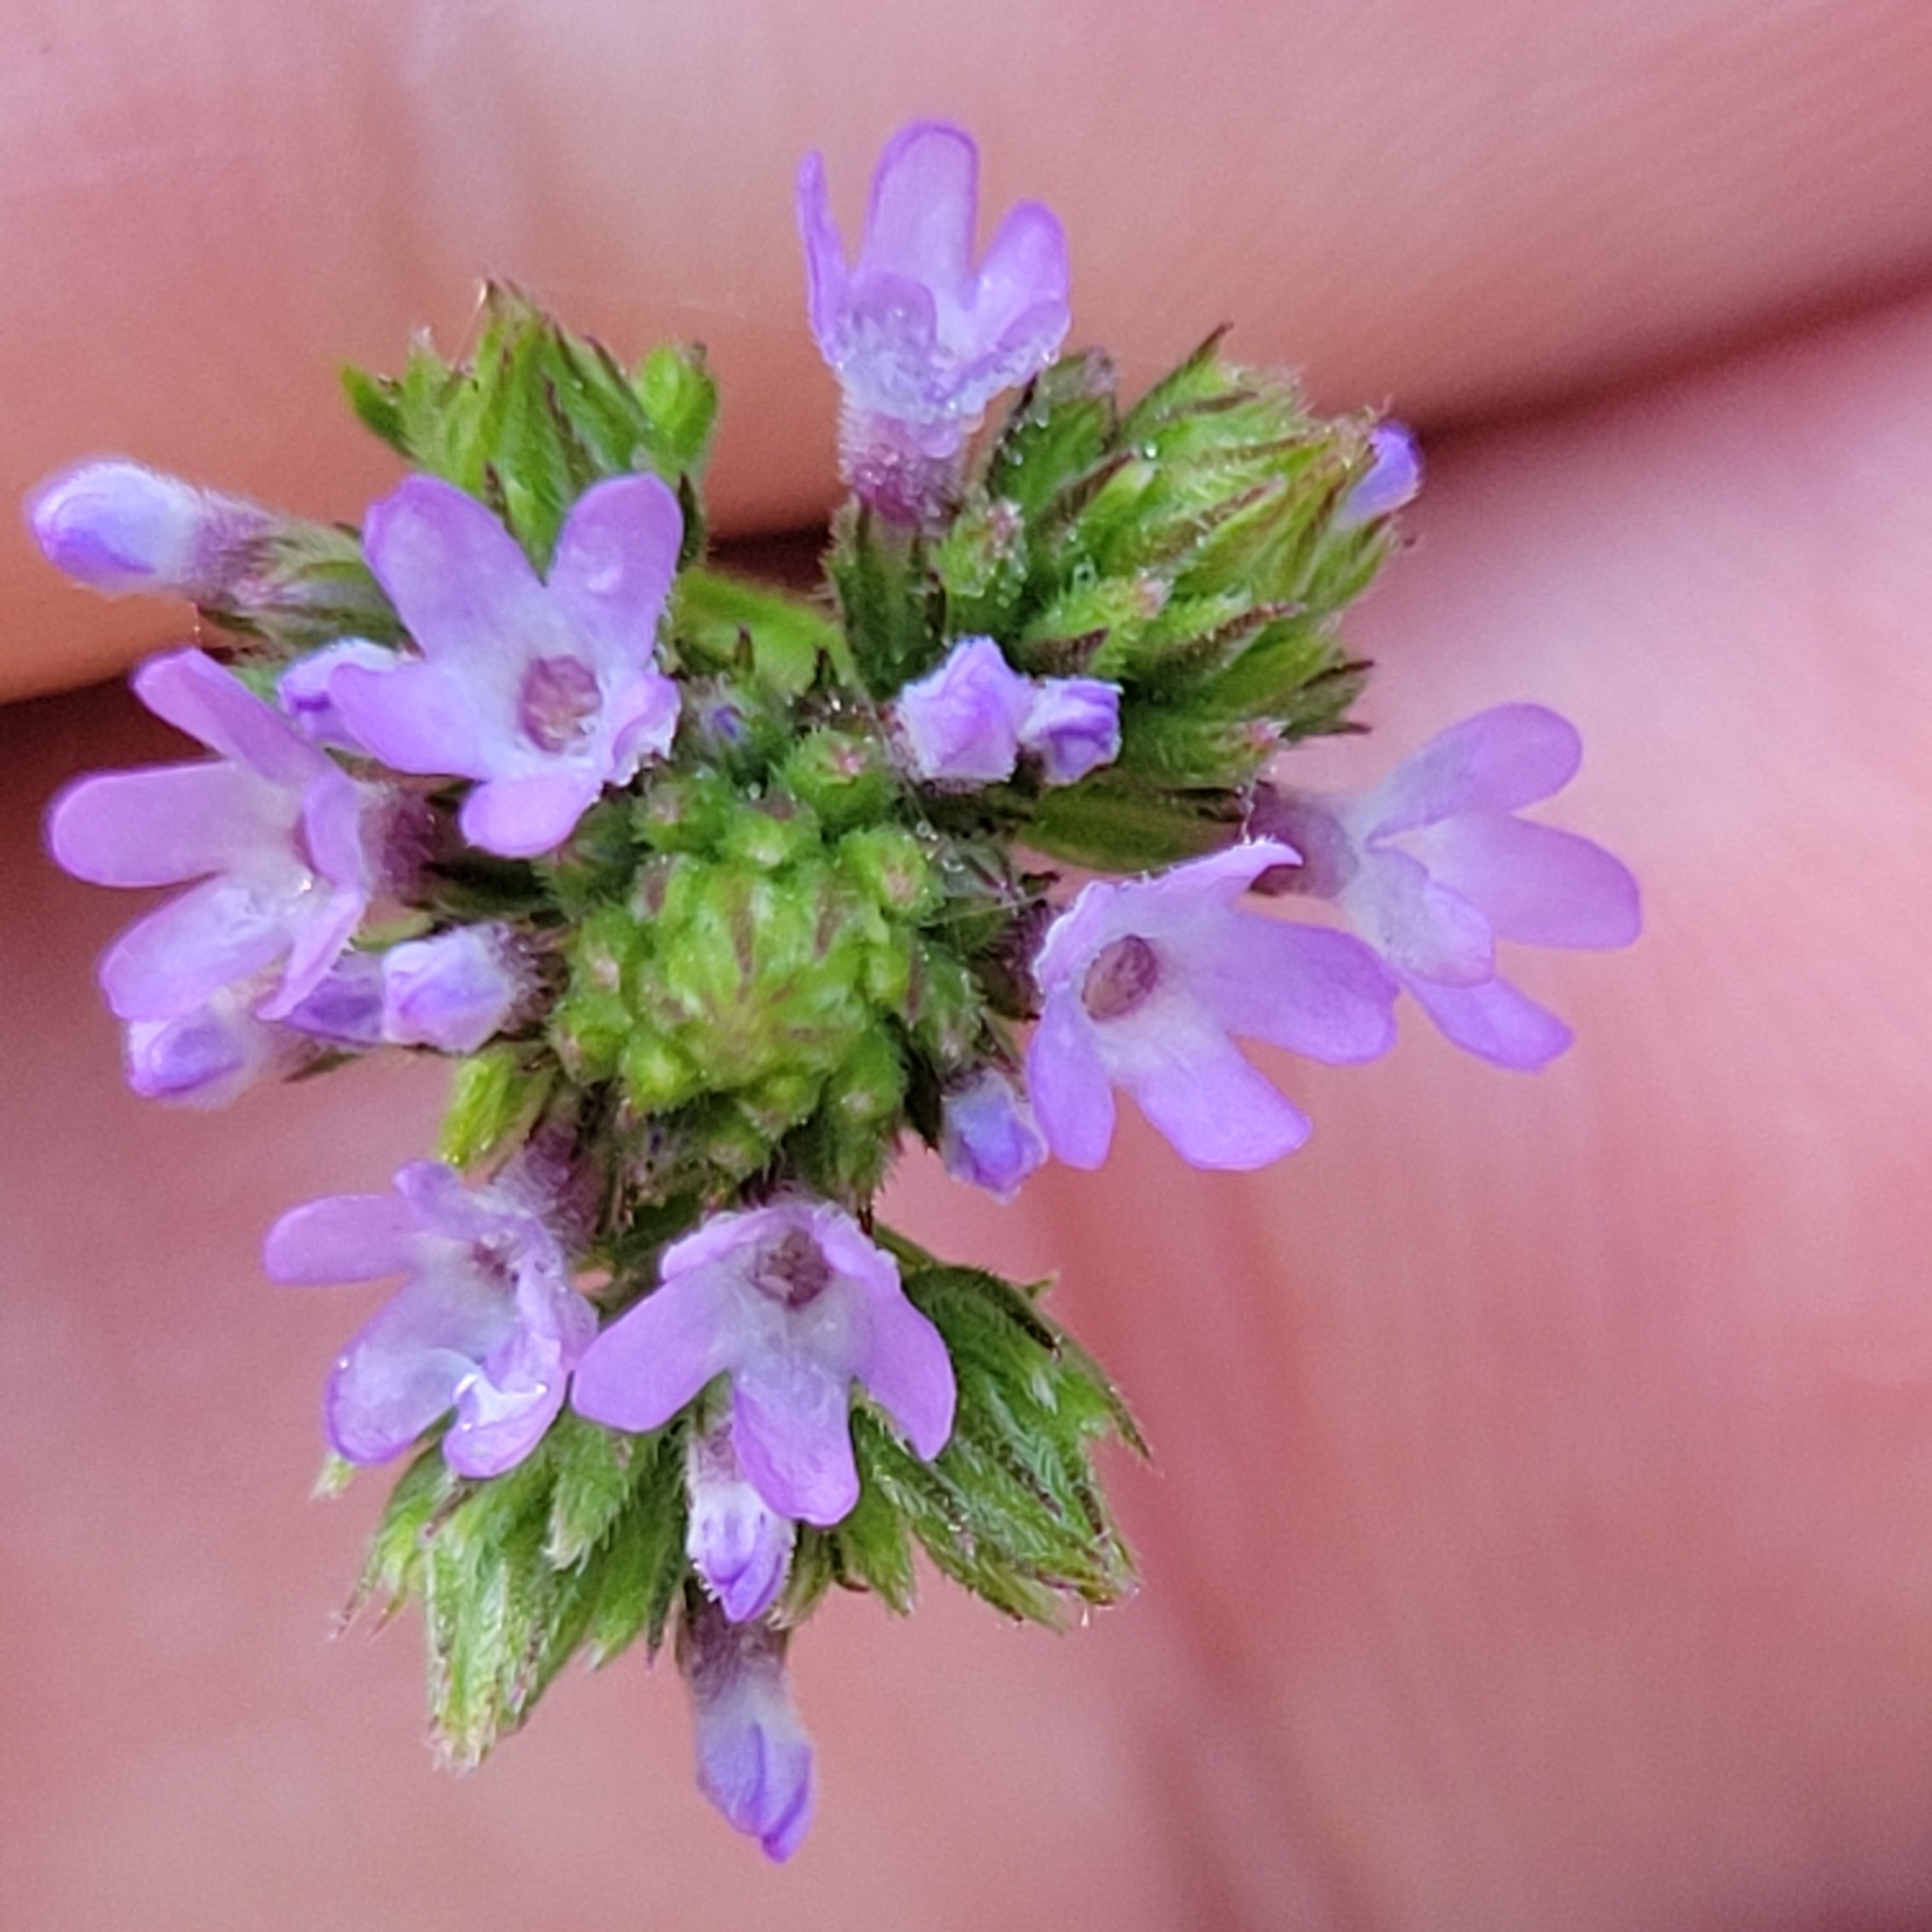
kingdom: Plantae
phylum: Tracheophyta
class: Magnoliopsida
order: Lamiales
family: Verbenaceae
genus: Verbena
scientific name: Verbena brasiliensis
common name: Brazilian vervain
